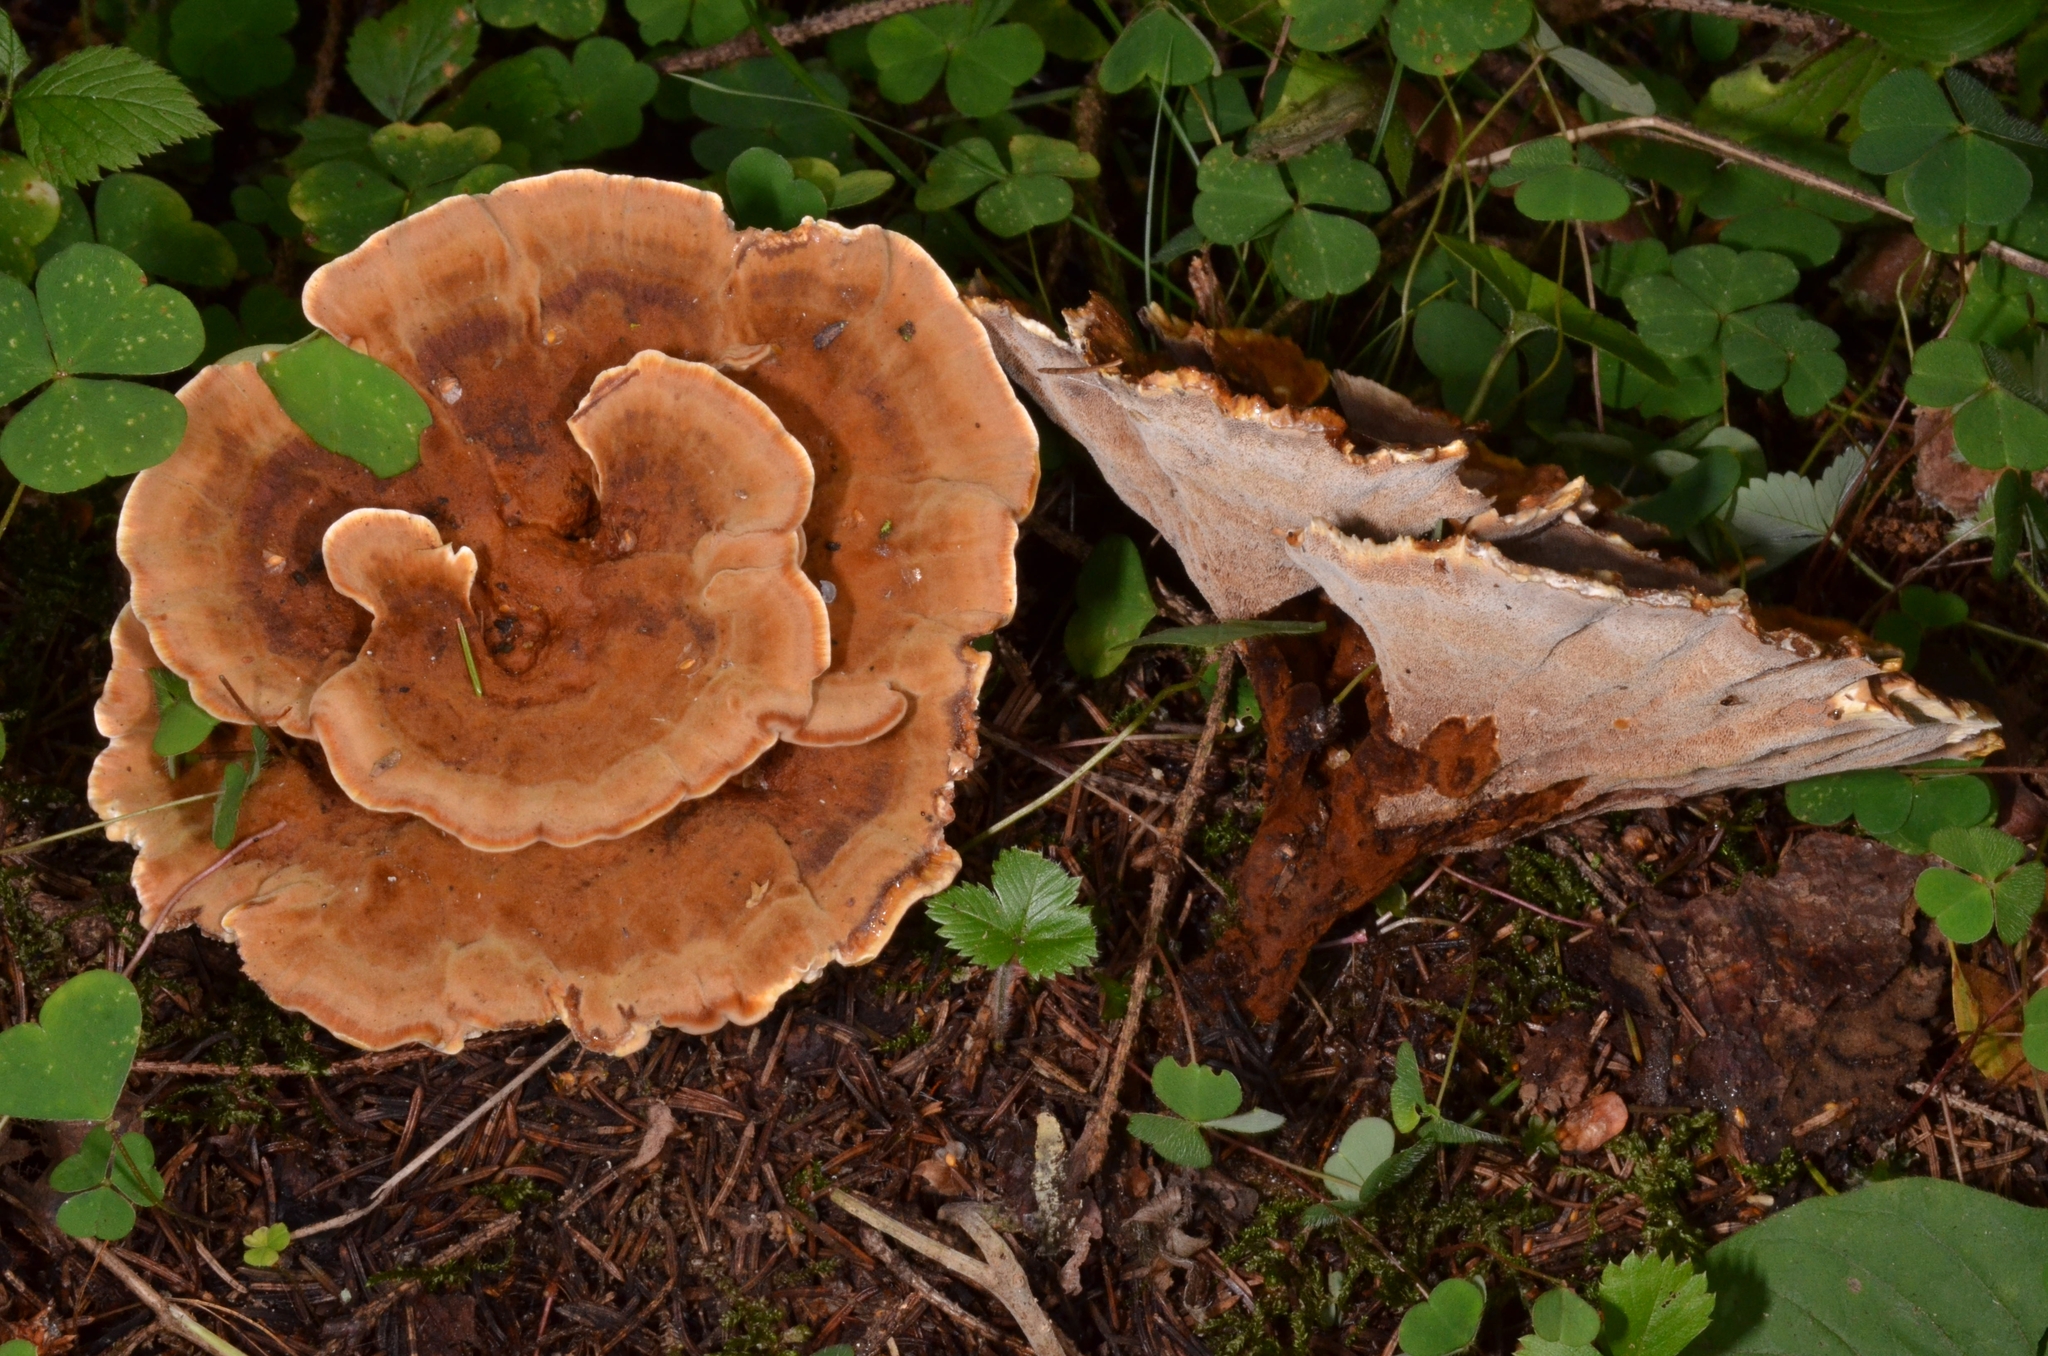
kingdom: Fungi
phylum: Basidiomycota
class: Agaricomycetes
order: Hymenochaetales
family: Hymenochaetaceae
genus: Onnia
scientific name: Onnia tomentosa
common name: Velvet rosette
